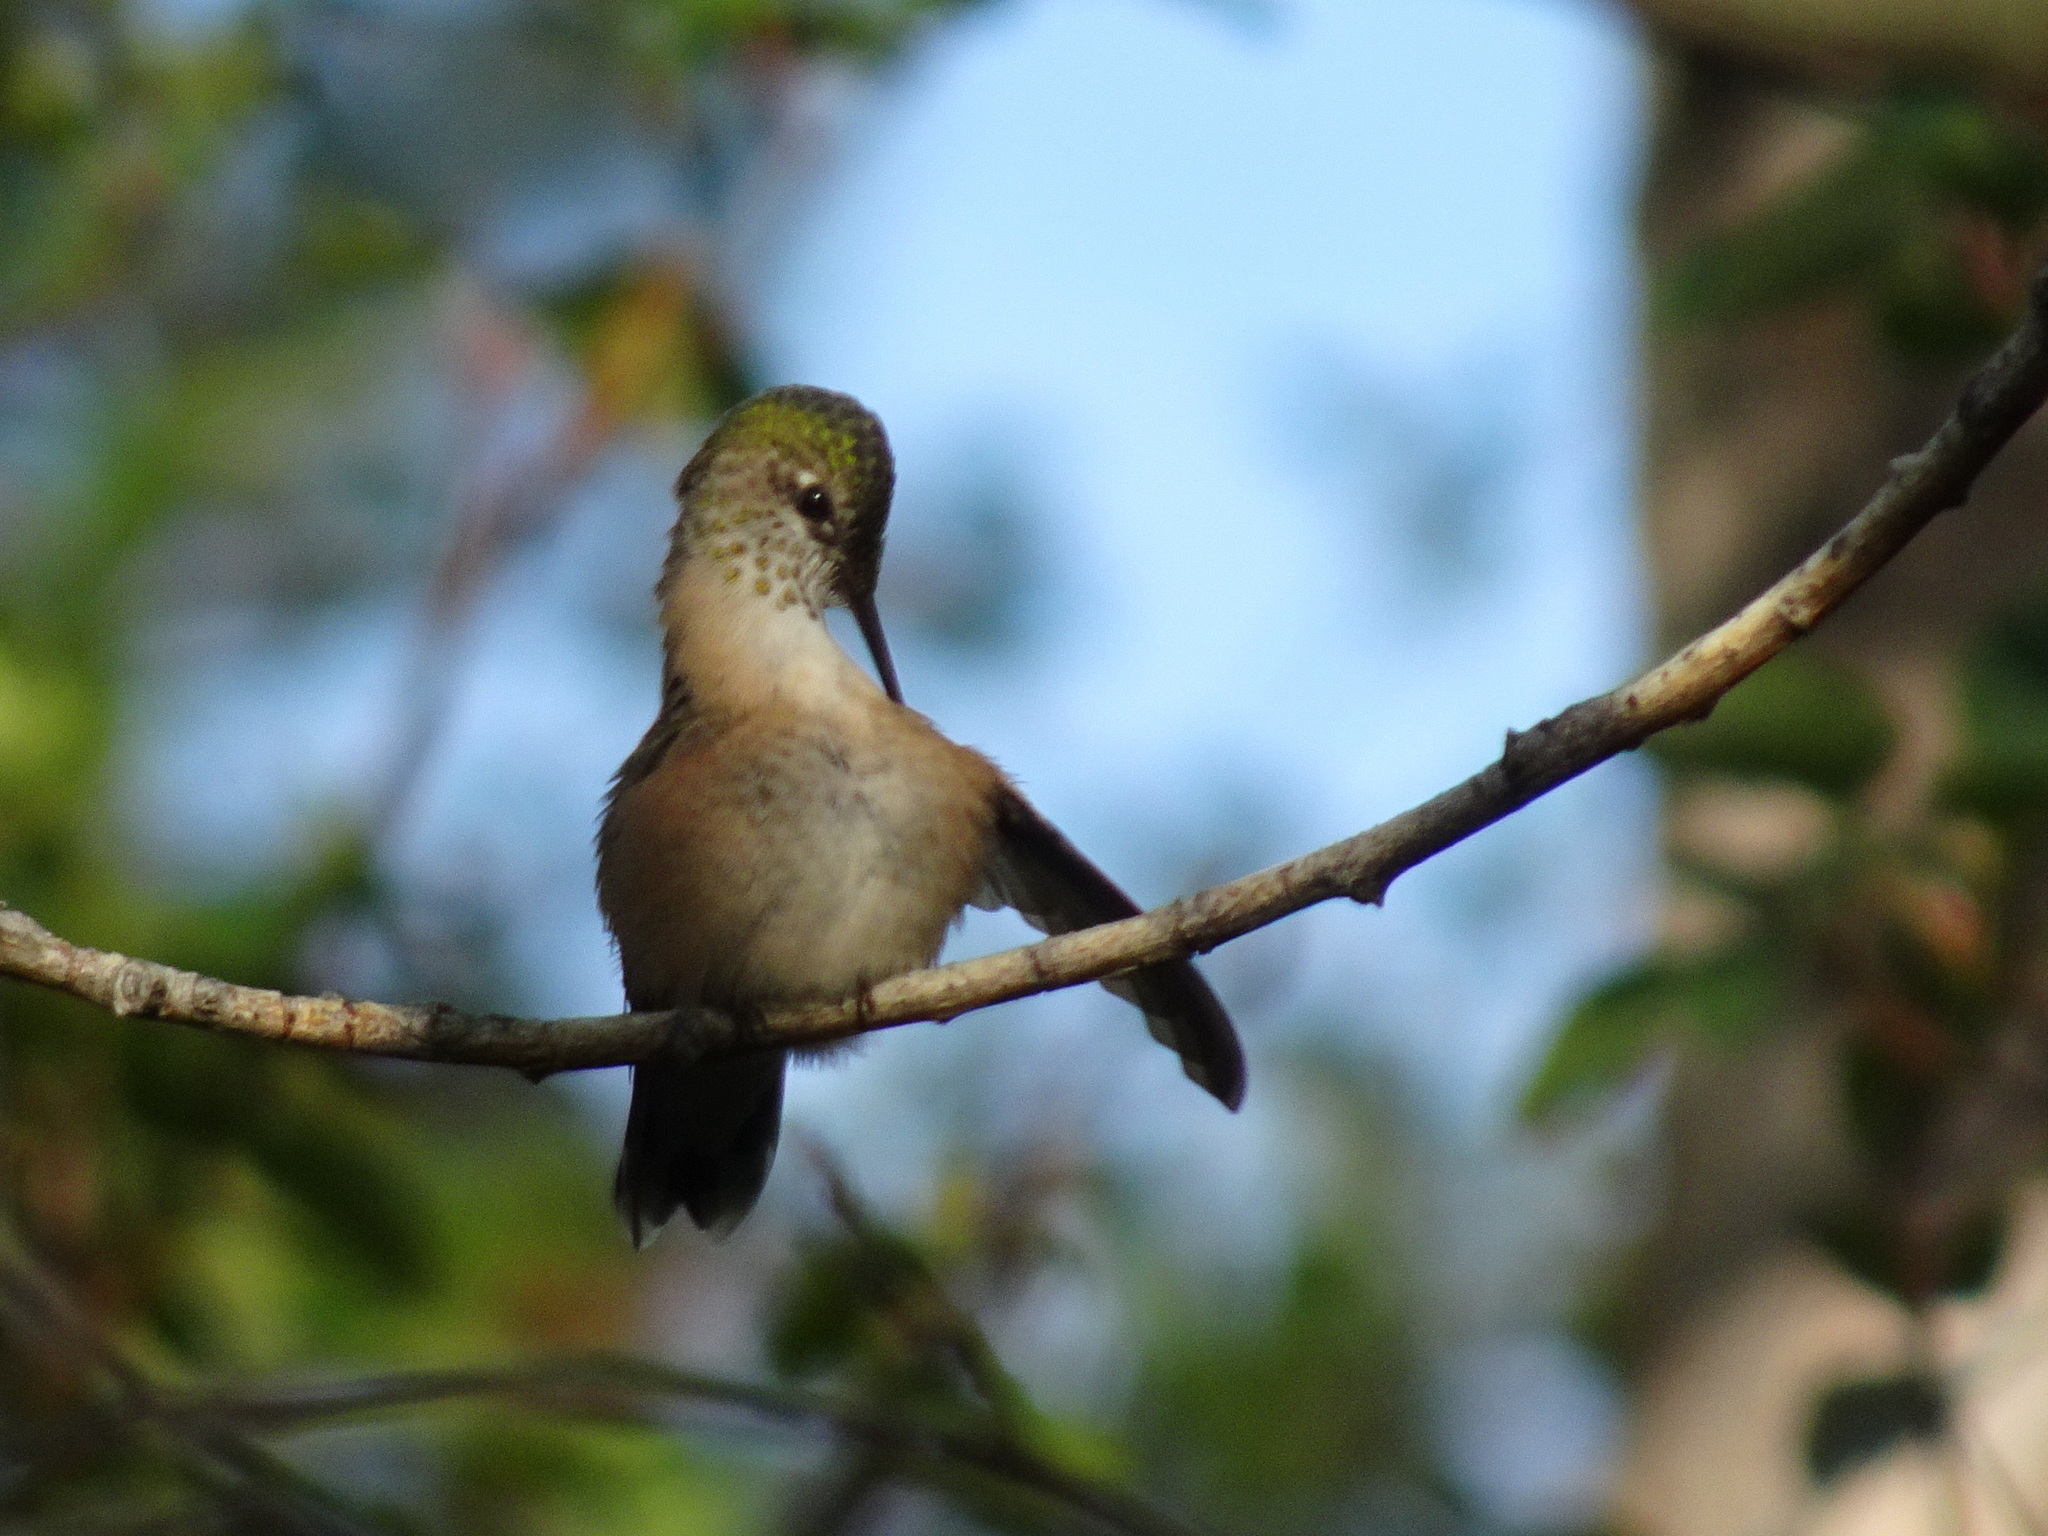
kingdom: Animalia
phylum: Chordata
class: Aves
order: Apodiformes
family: Trochilidae
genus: Selasphorus
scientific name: Selasphorus calliope
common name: Calliope hummingbird
